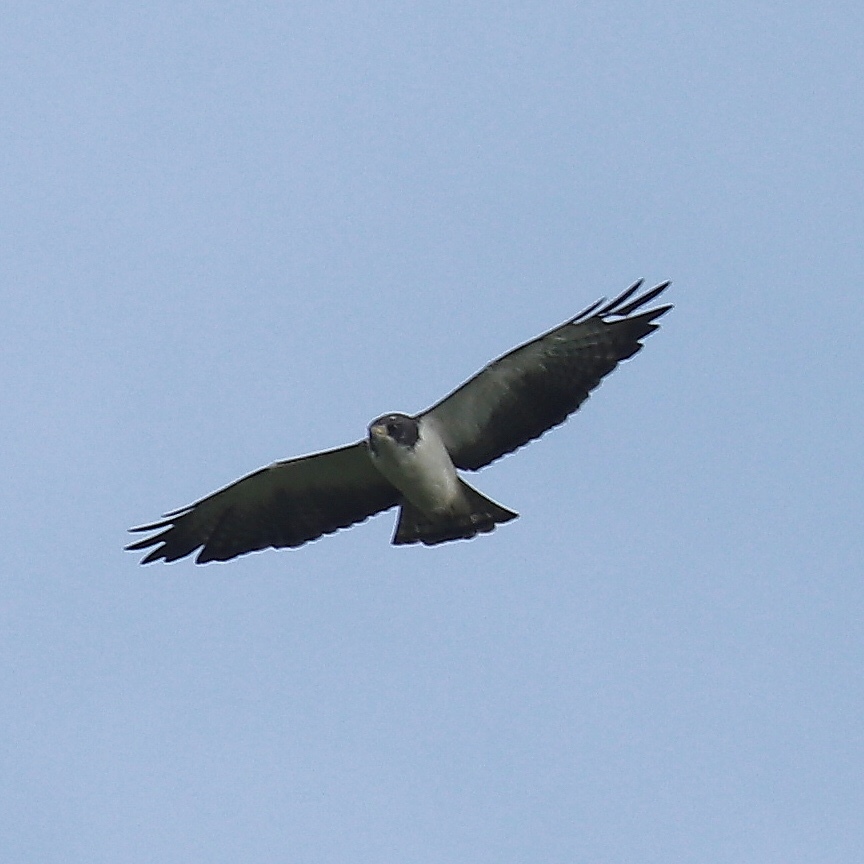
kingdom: Animalia
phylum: Chordata
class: Aves
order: Accipitriformes
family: Accipitridae
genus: Buteo
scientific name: Buteo brachyurus
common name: Short-tailed hawk
